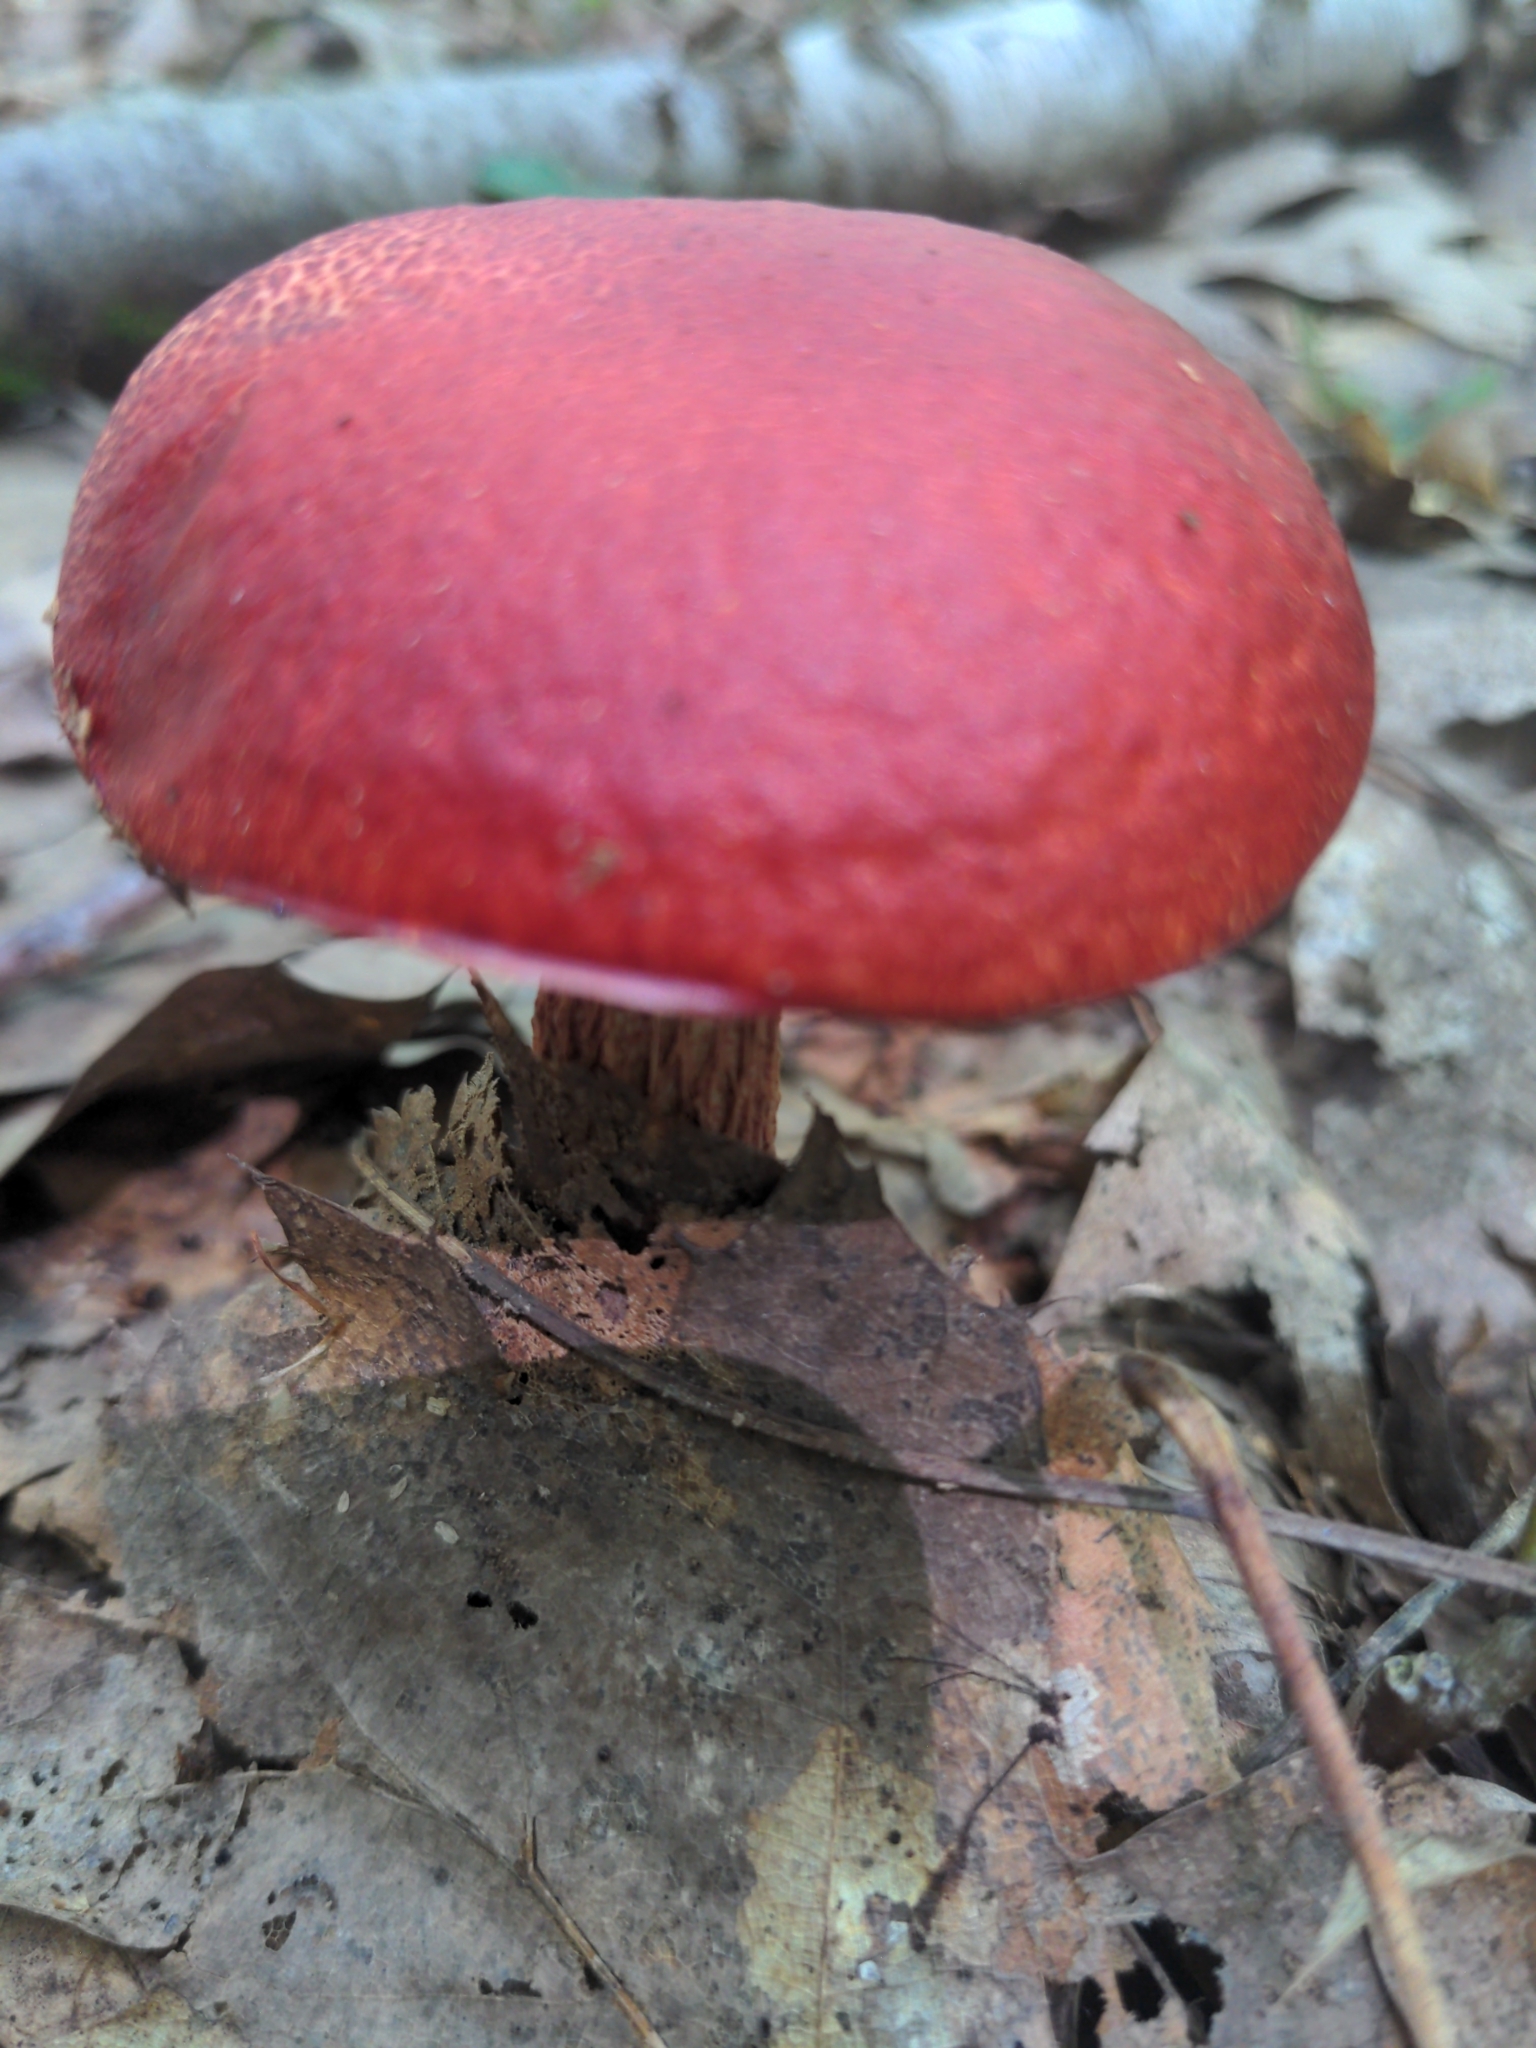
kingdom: Fungi
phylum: Basidiomycota
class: Agaricomycetes
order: Boletales
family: Boletaceae
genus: Butyriboletus
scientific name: Butyriboletus frostii
